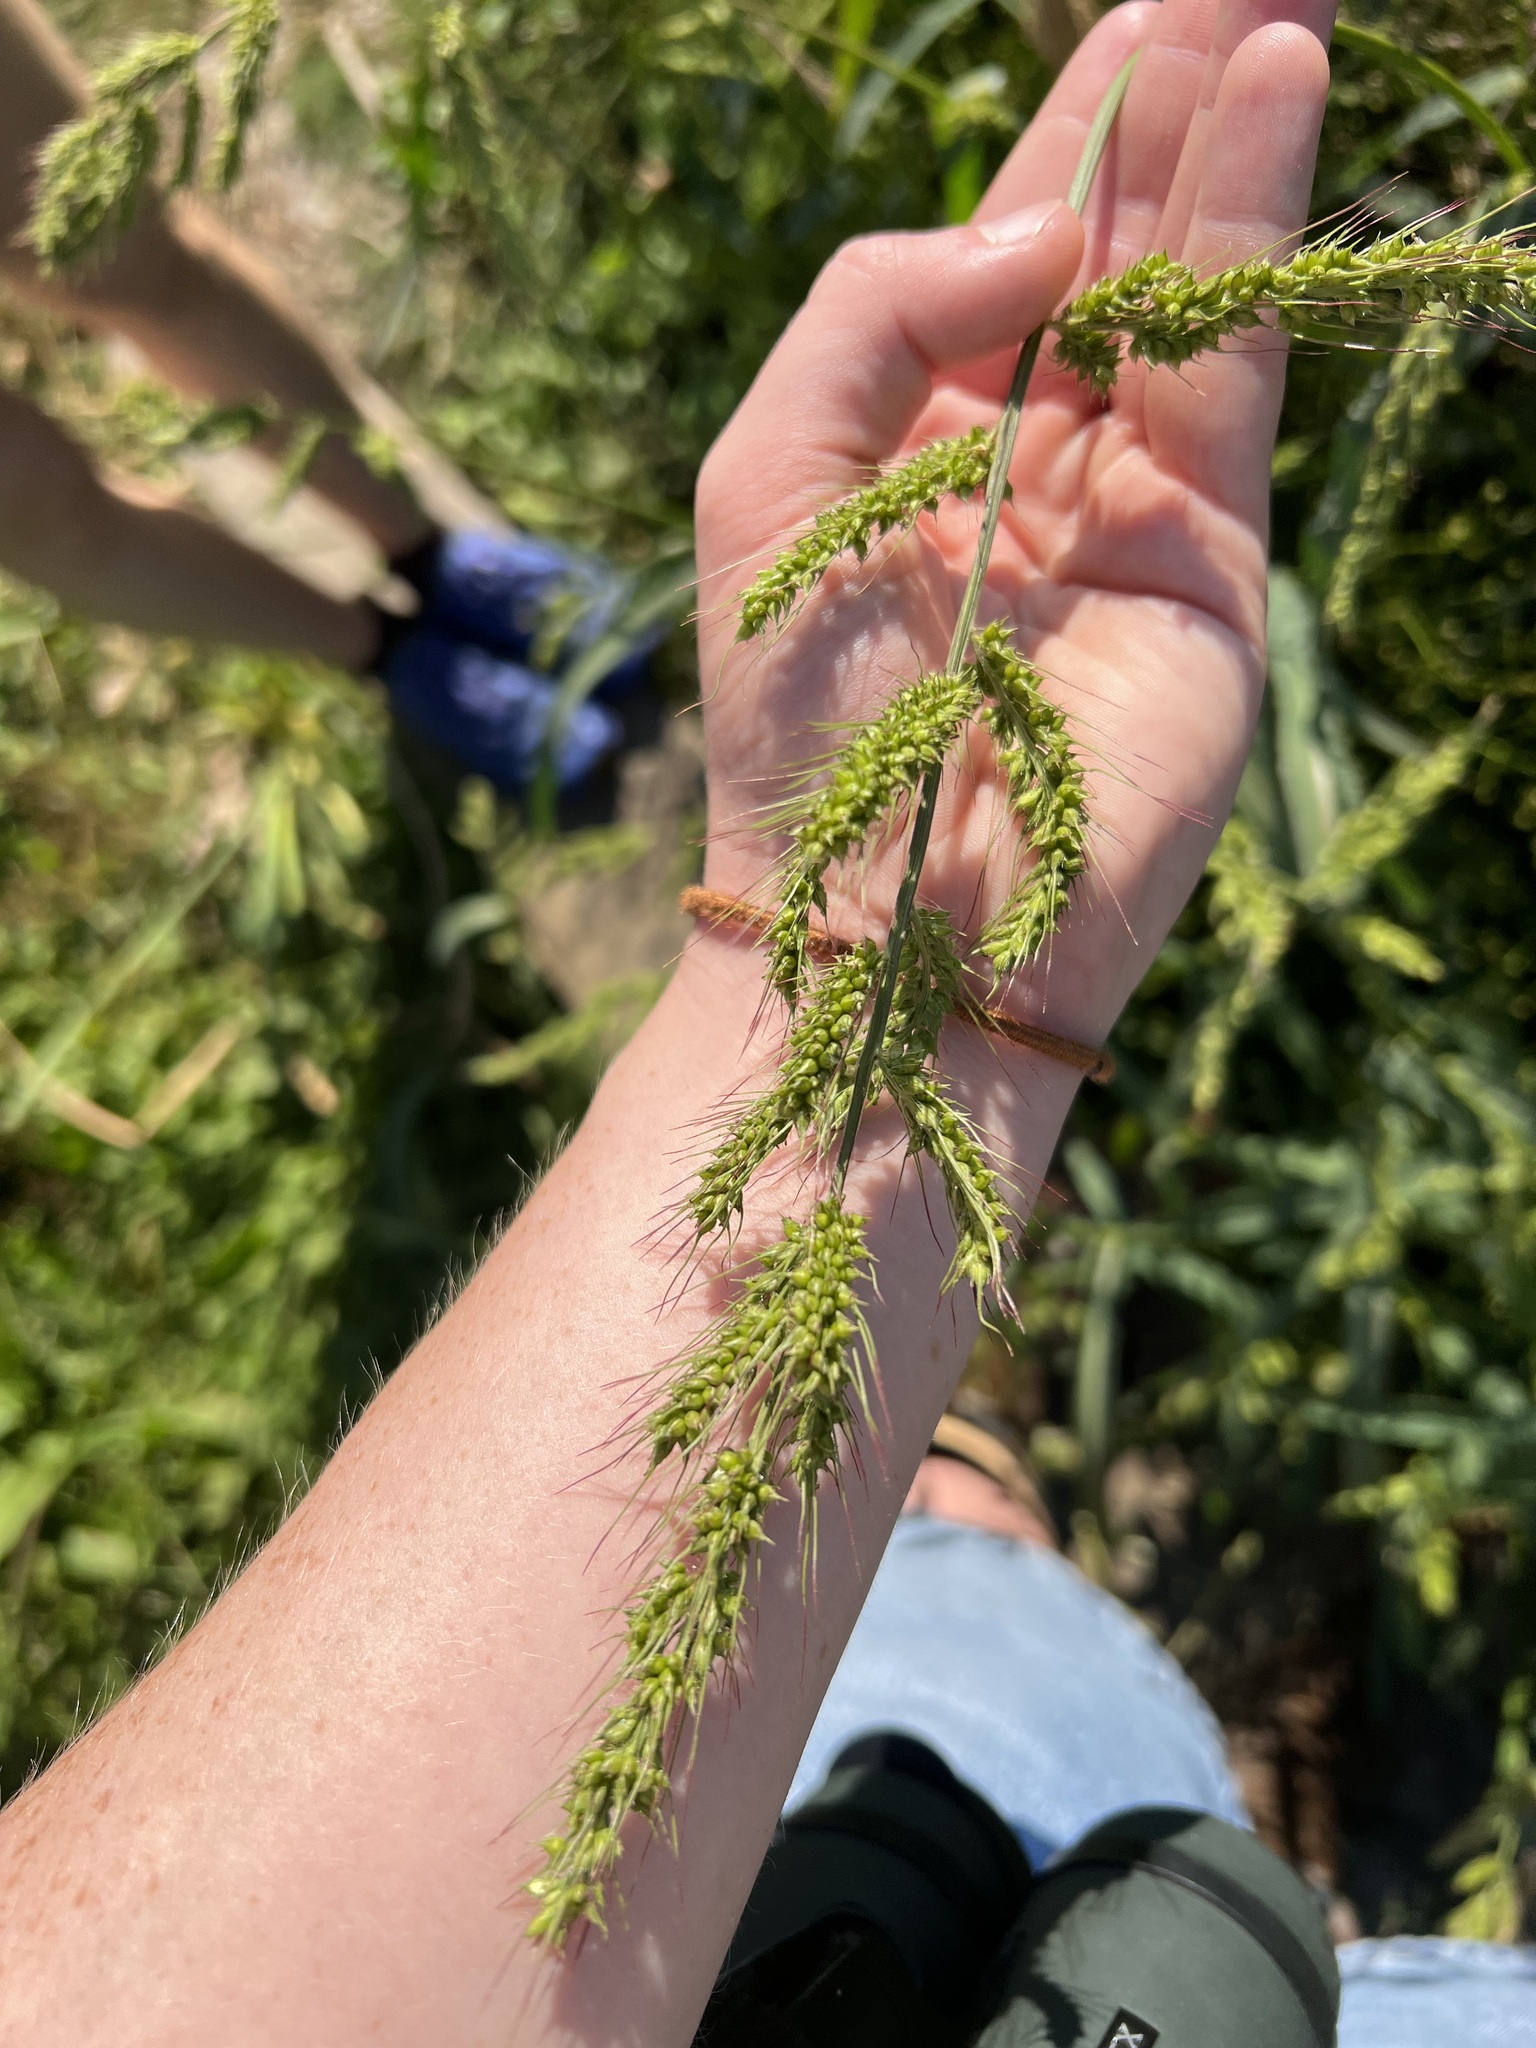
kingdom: Plantae
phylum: Tracheophyta
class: Liliopsida
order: Poales
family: Poaceae
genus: Echinochloa
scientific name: Echinochloa crus-galli
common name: Cockspur
